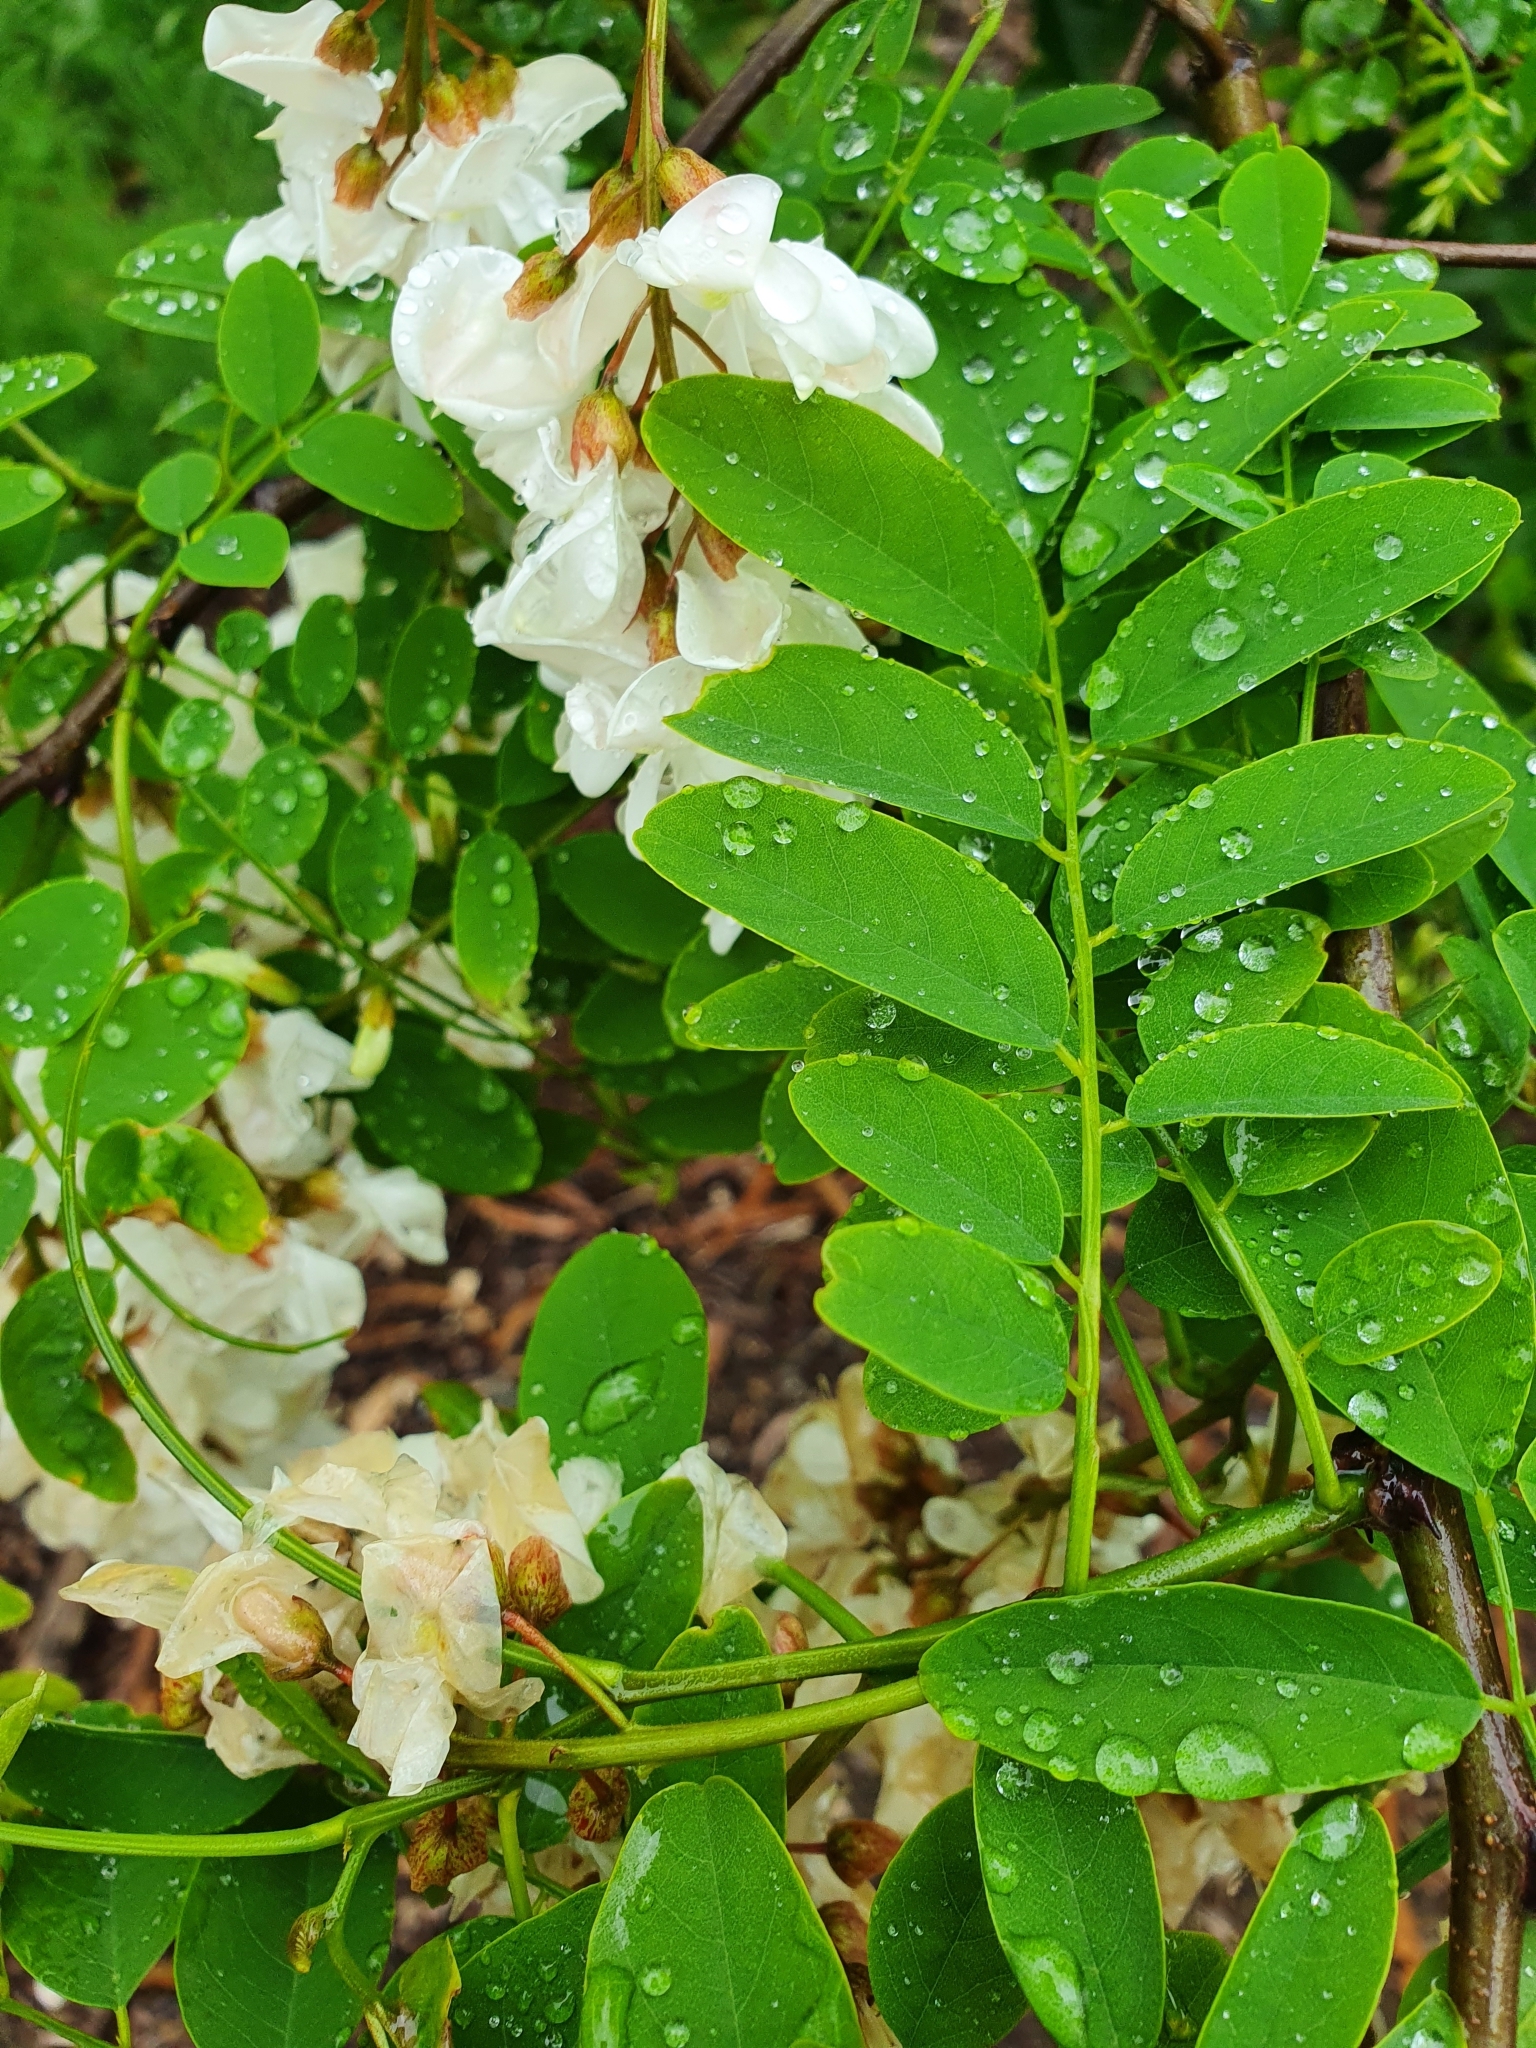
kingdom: Plantae
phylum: Tracheophyta
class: Magnoliopsida
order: Fabales
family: Fabaceae
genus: Robinia
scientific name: Robinia pseudoacacia
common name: Black locust
